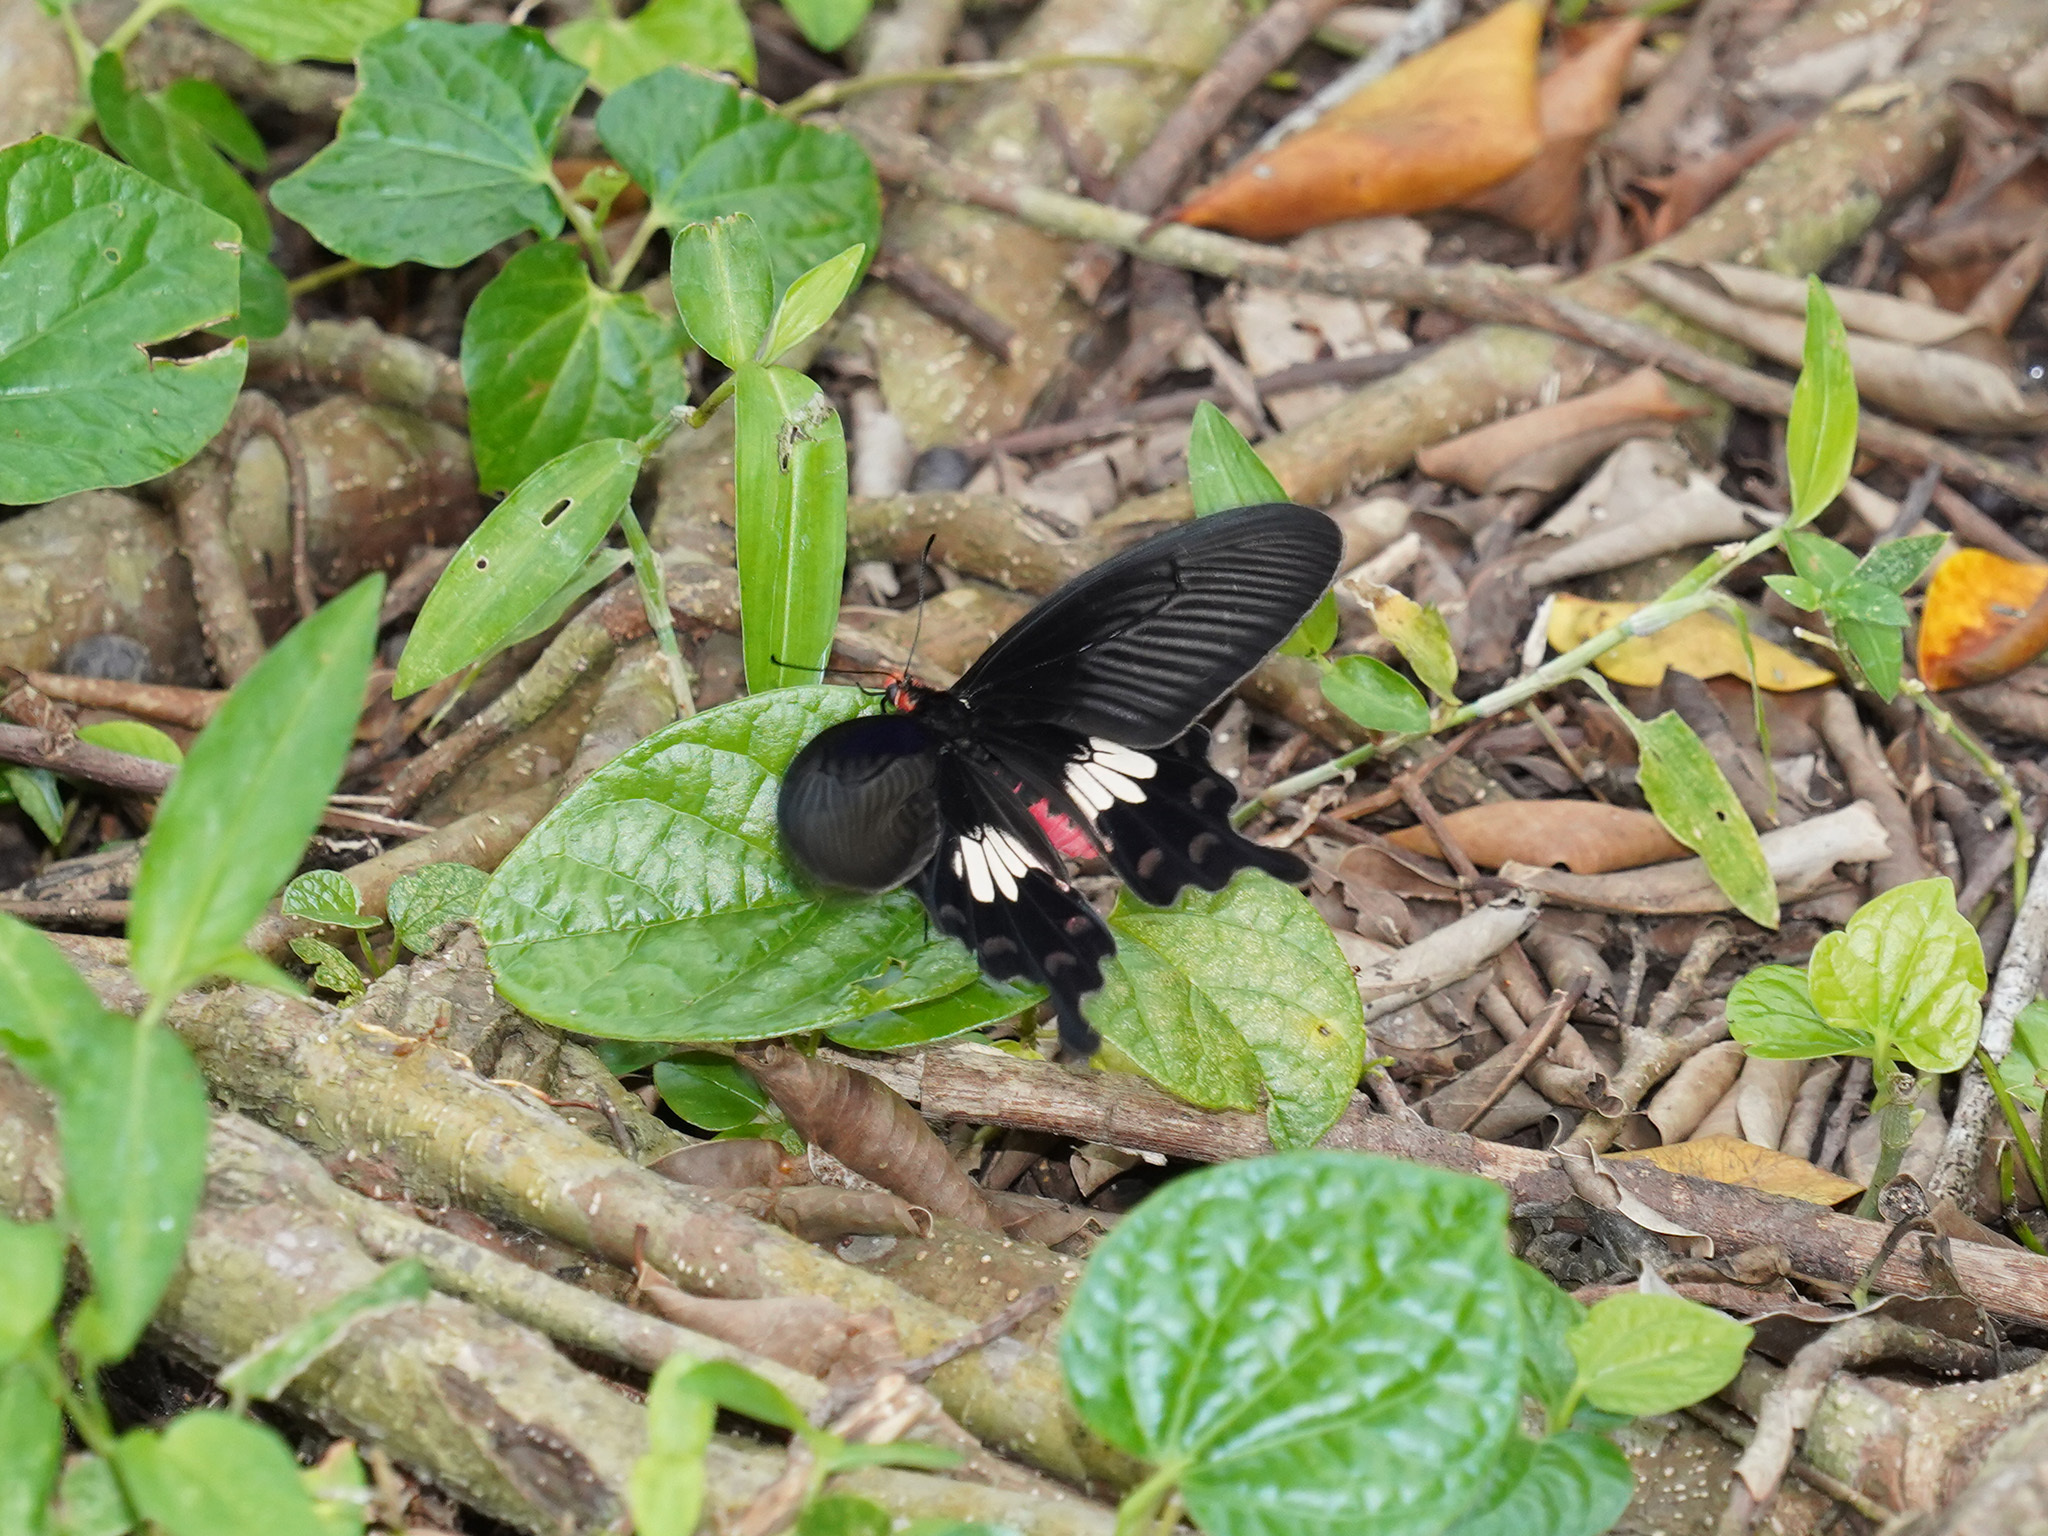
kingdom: Animalia
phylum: Arthropoda
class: Insecta
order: Lepidoptera
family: Papilionidae
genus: Pachliopta
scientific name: Pachliopta aristolochiae
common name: Common rose
